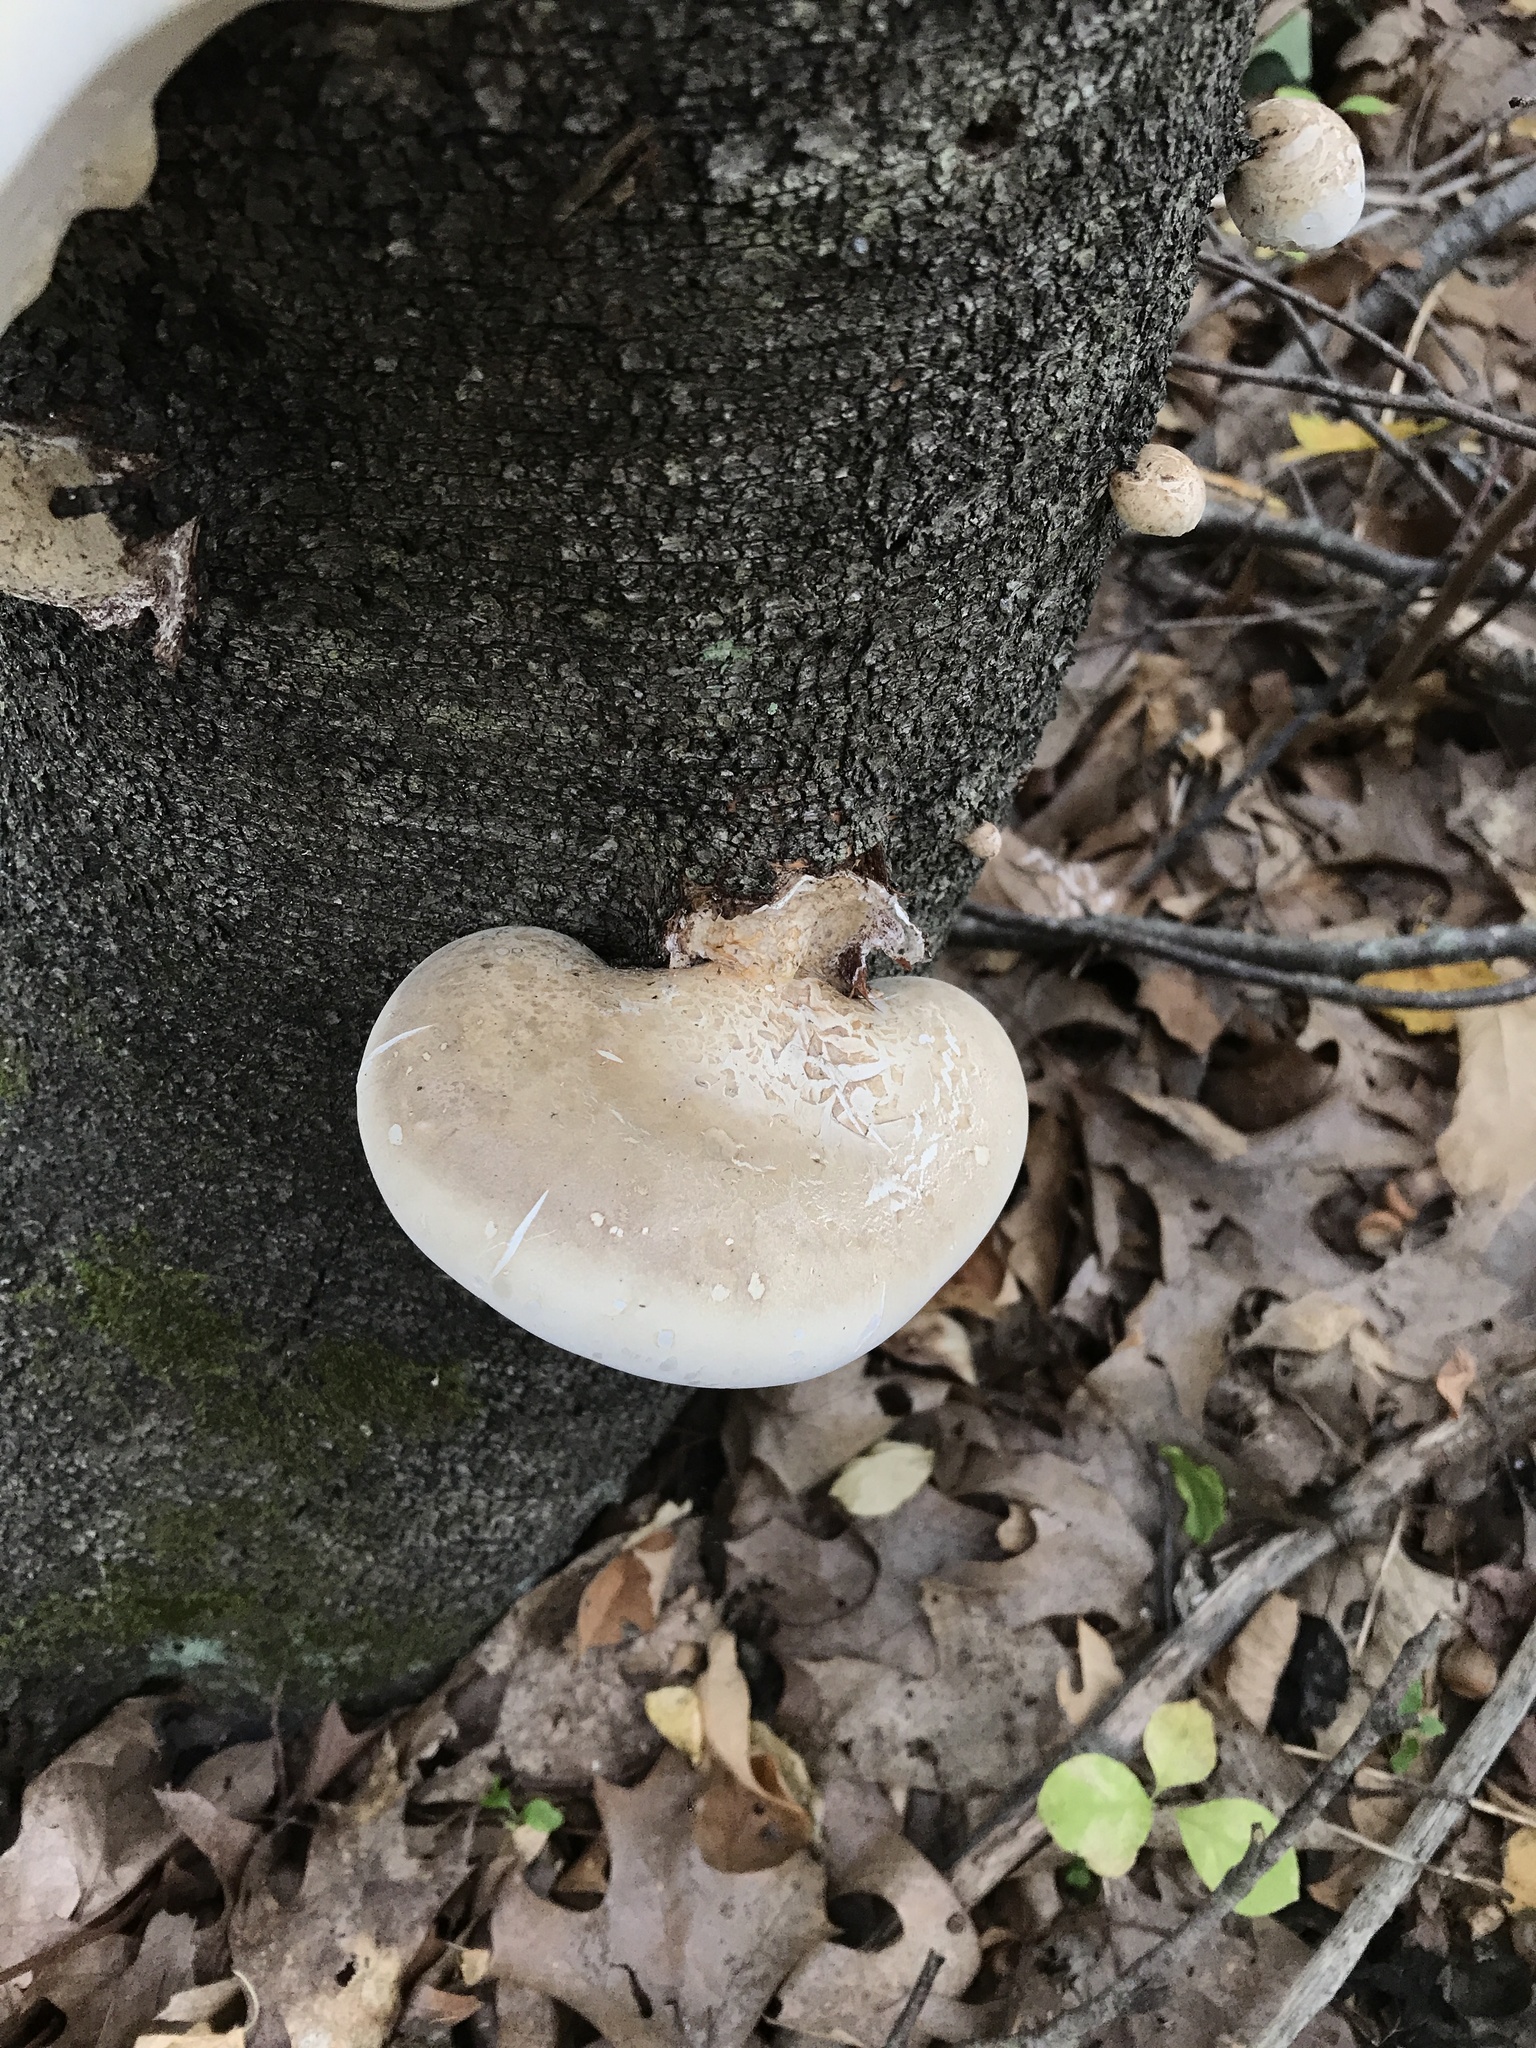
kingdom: Fungi
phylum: Basidiomycota
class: Agaricomycetes
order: Polyporales
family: Fomitopsidaceae
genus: Fomitopsis
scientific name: Fomitopsis betulina
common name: Birch polypore
